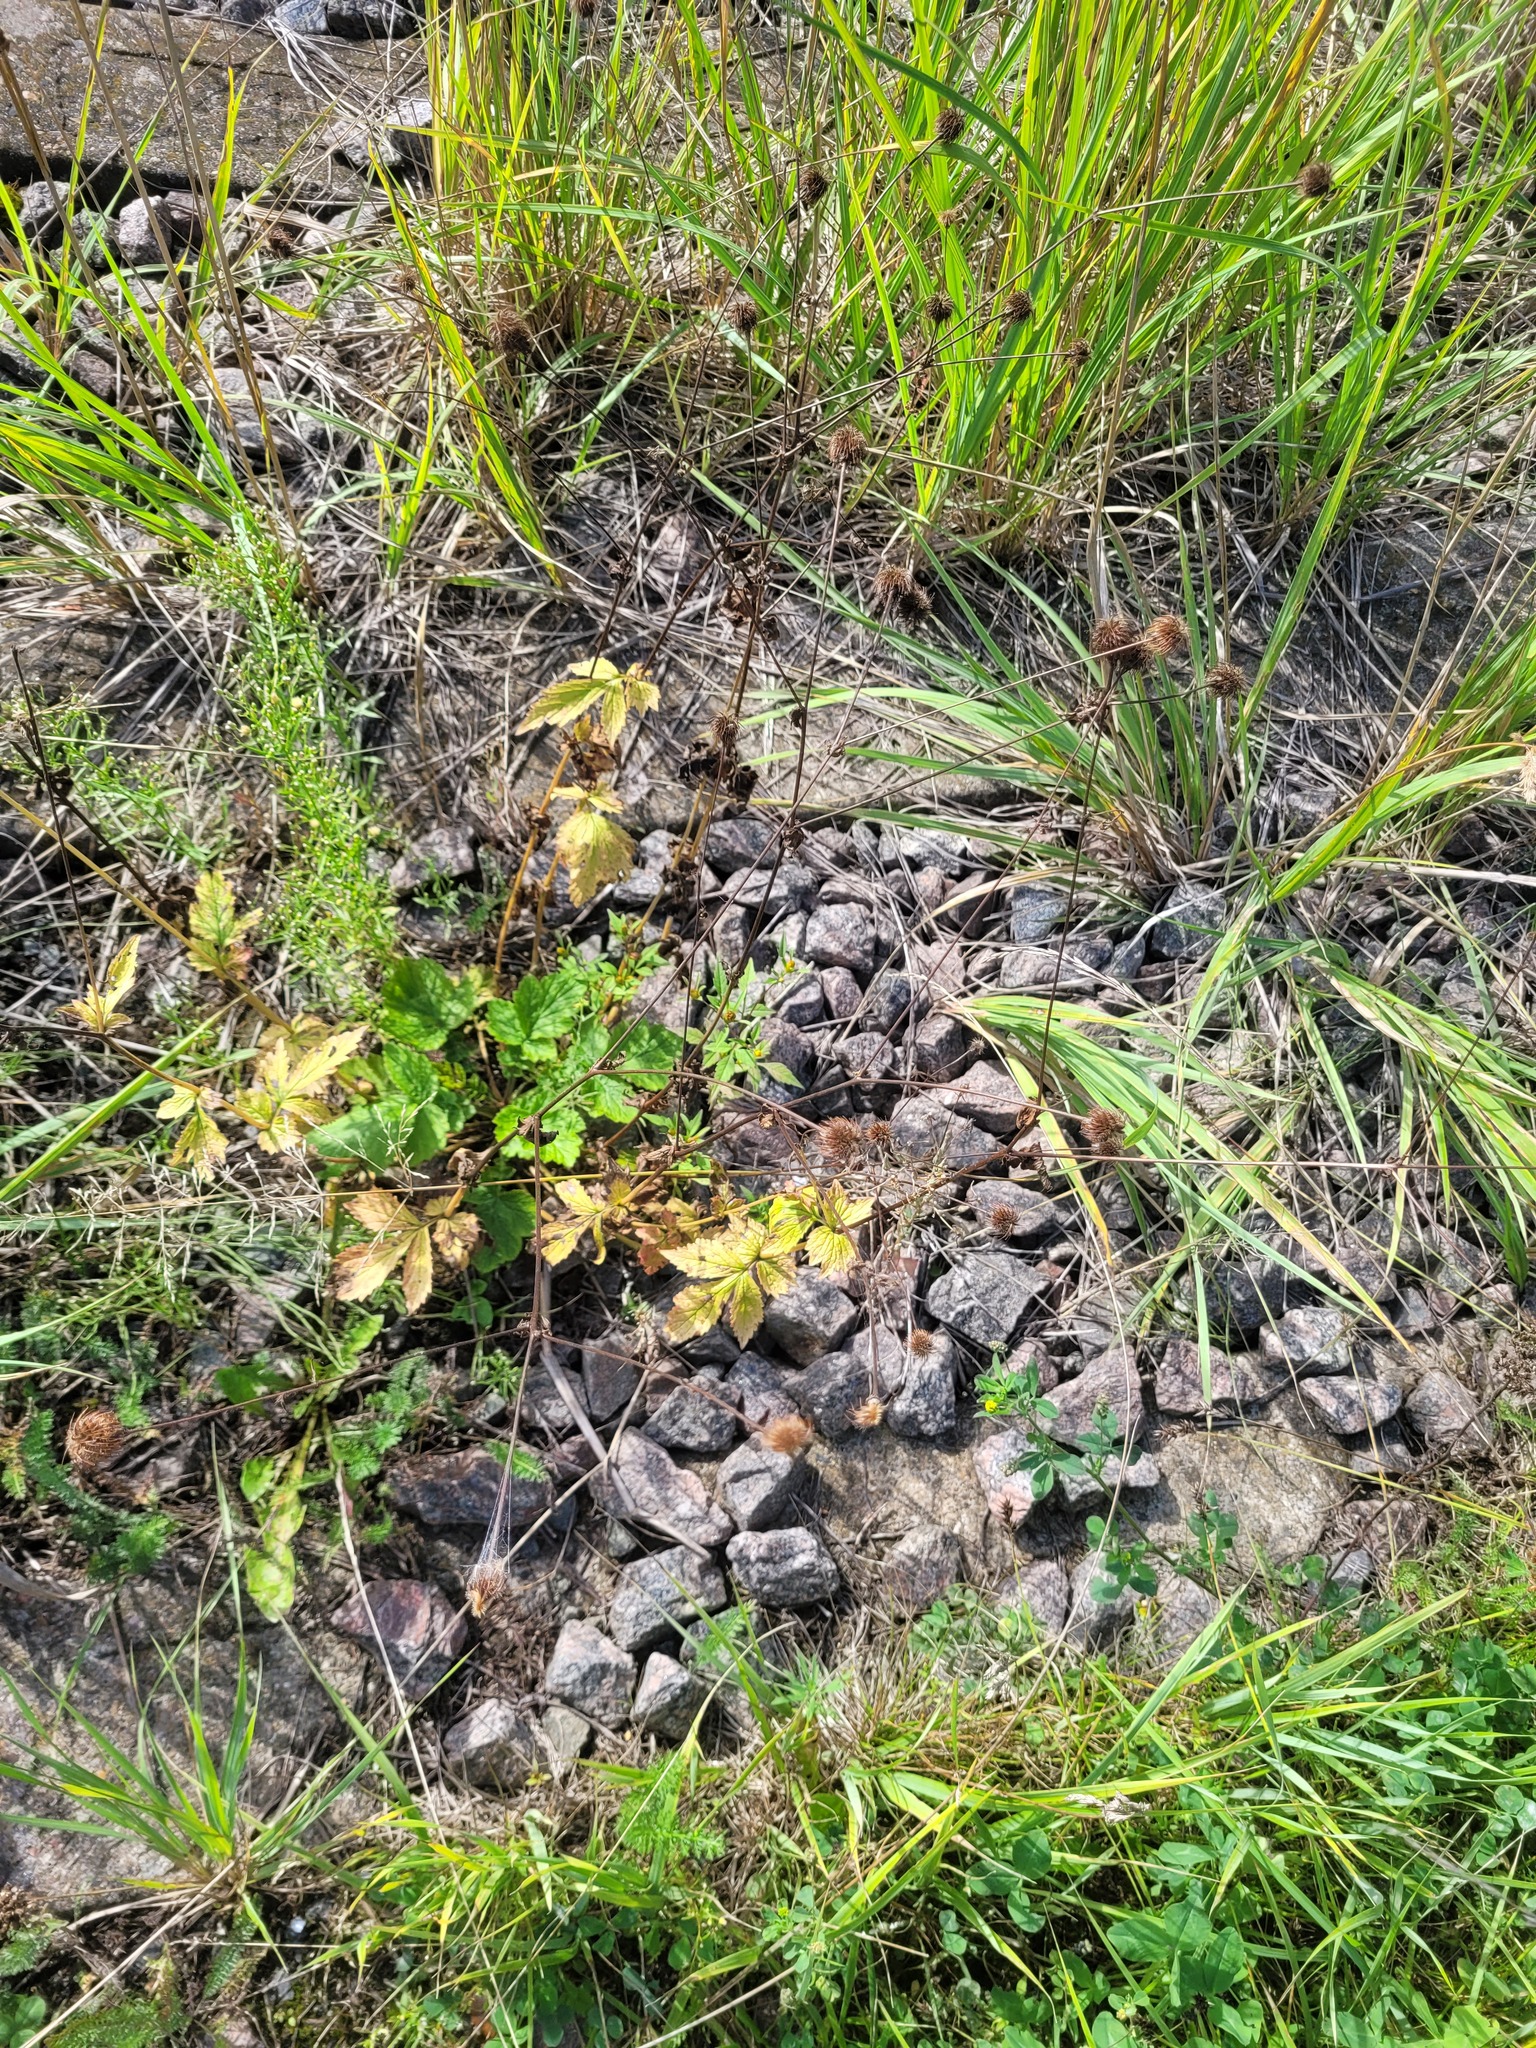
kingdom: Plantae
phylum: Tracheophyta
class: Magnoliopsida
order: Rosales
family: Rosaceae
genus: Geum
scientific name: Geum urbanum
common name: Wood avens
